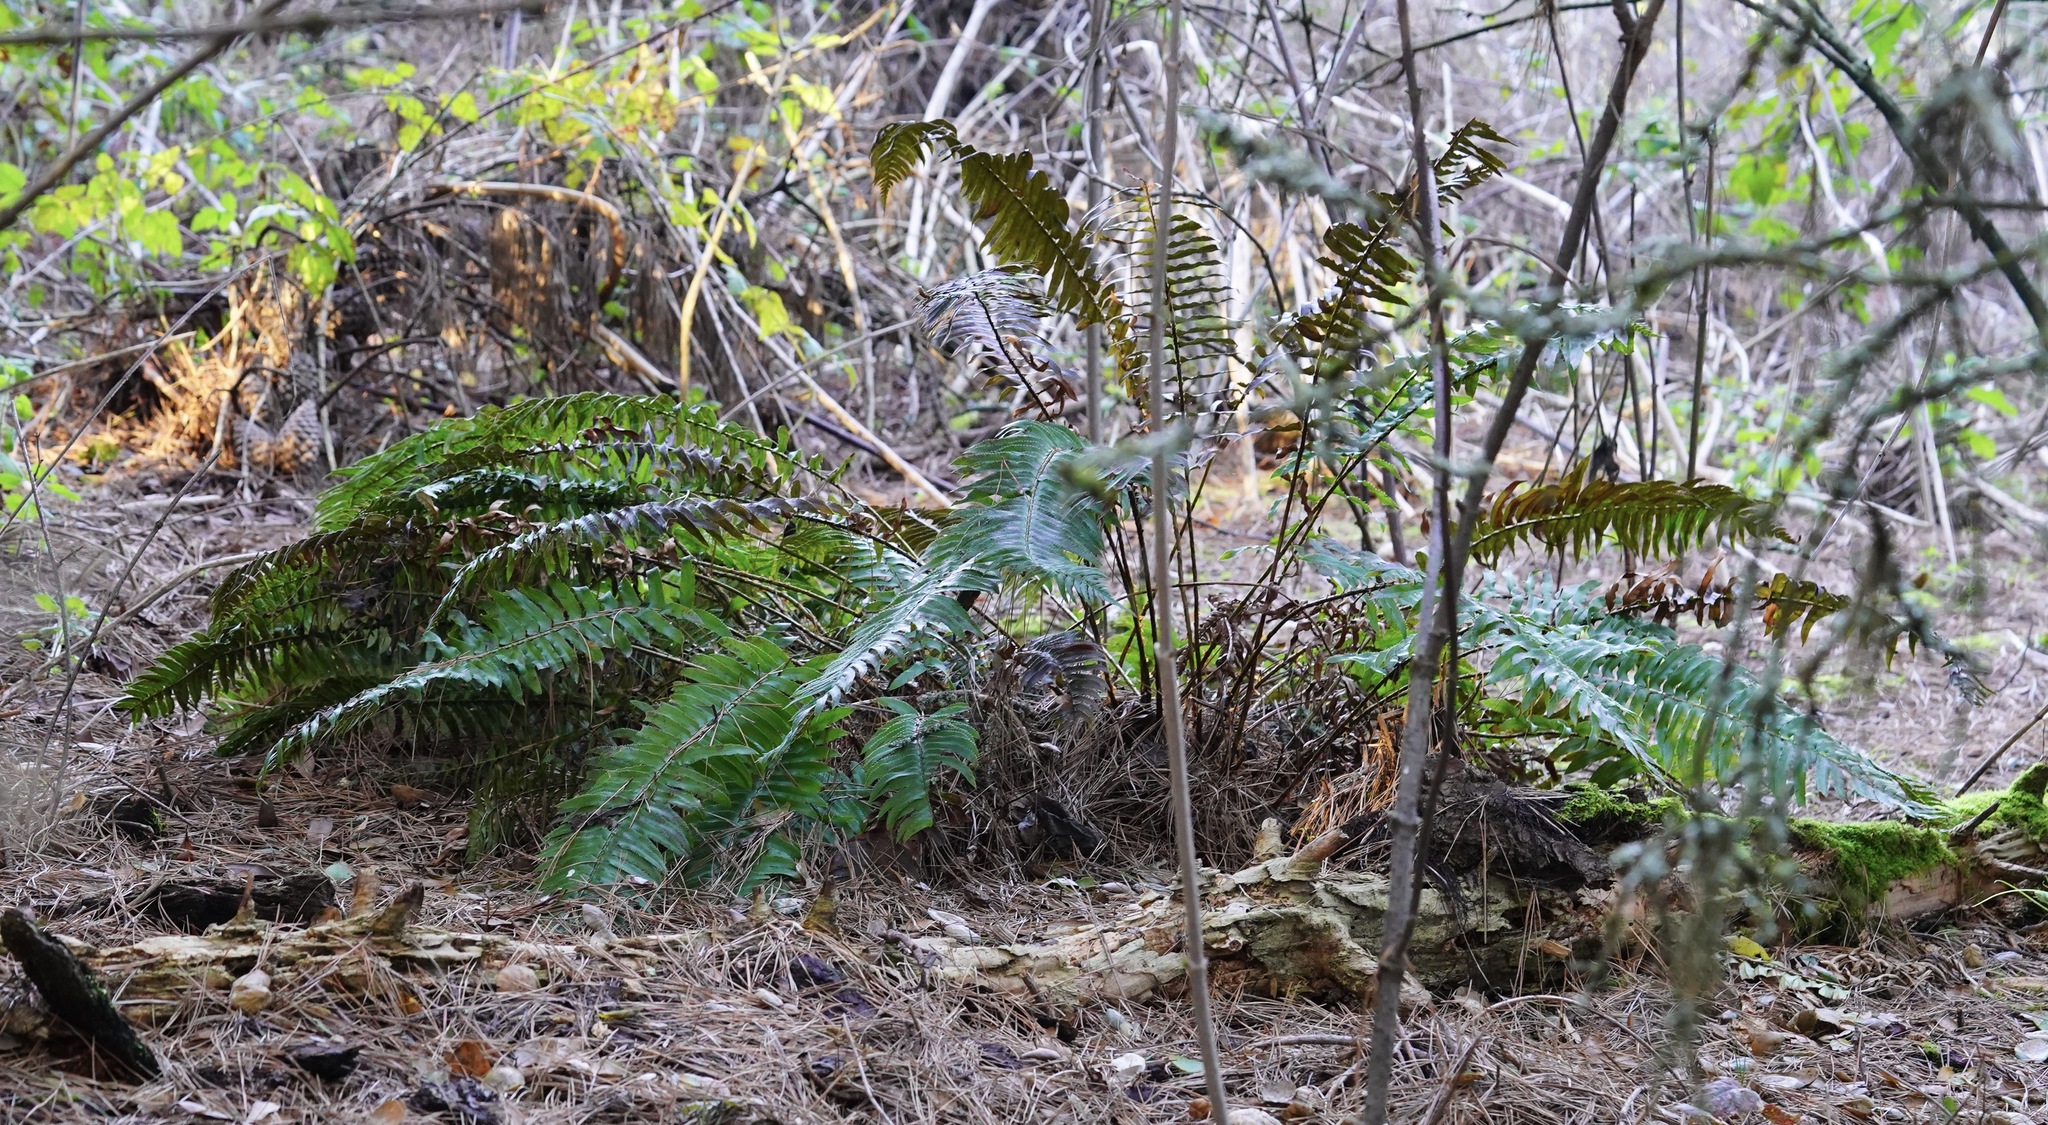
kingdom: Plantae
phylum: Tracheophyta
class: Polypodiopsida
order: Polypodiales
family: Dryopteridaceae
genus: Polystichum
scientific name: Polystichum munitum
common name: Western sword-fern
